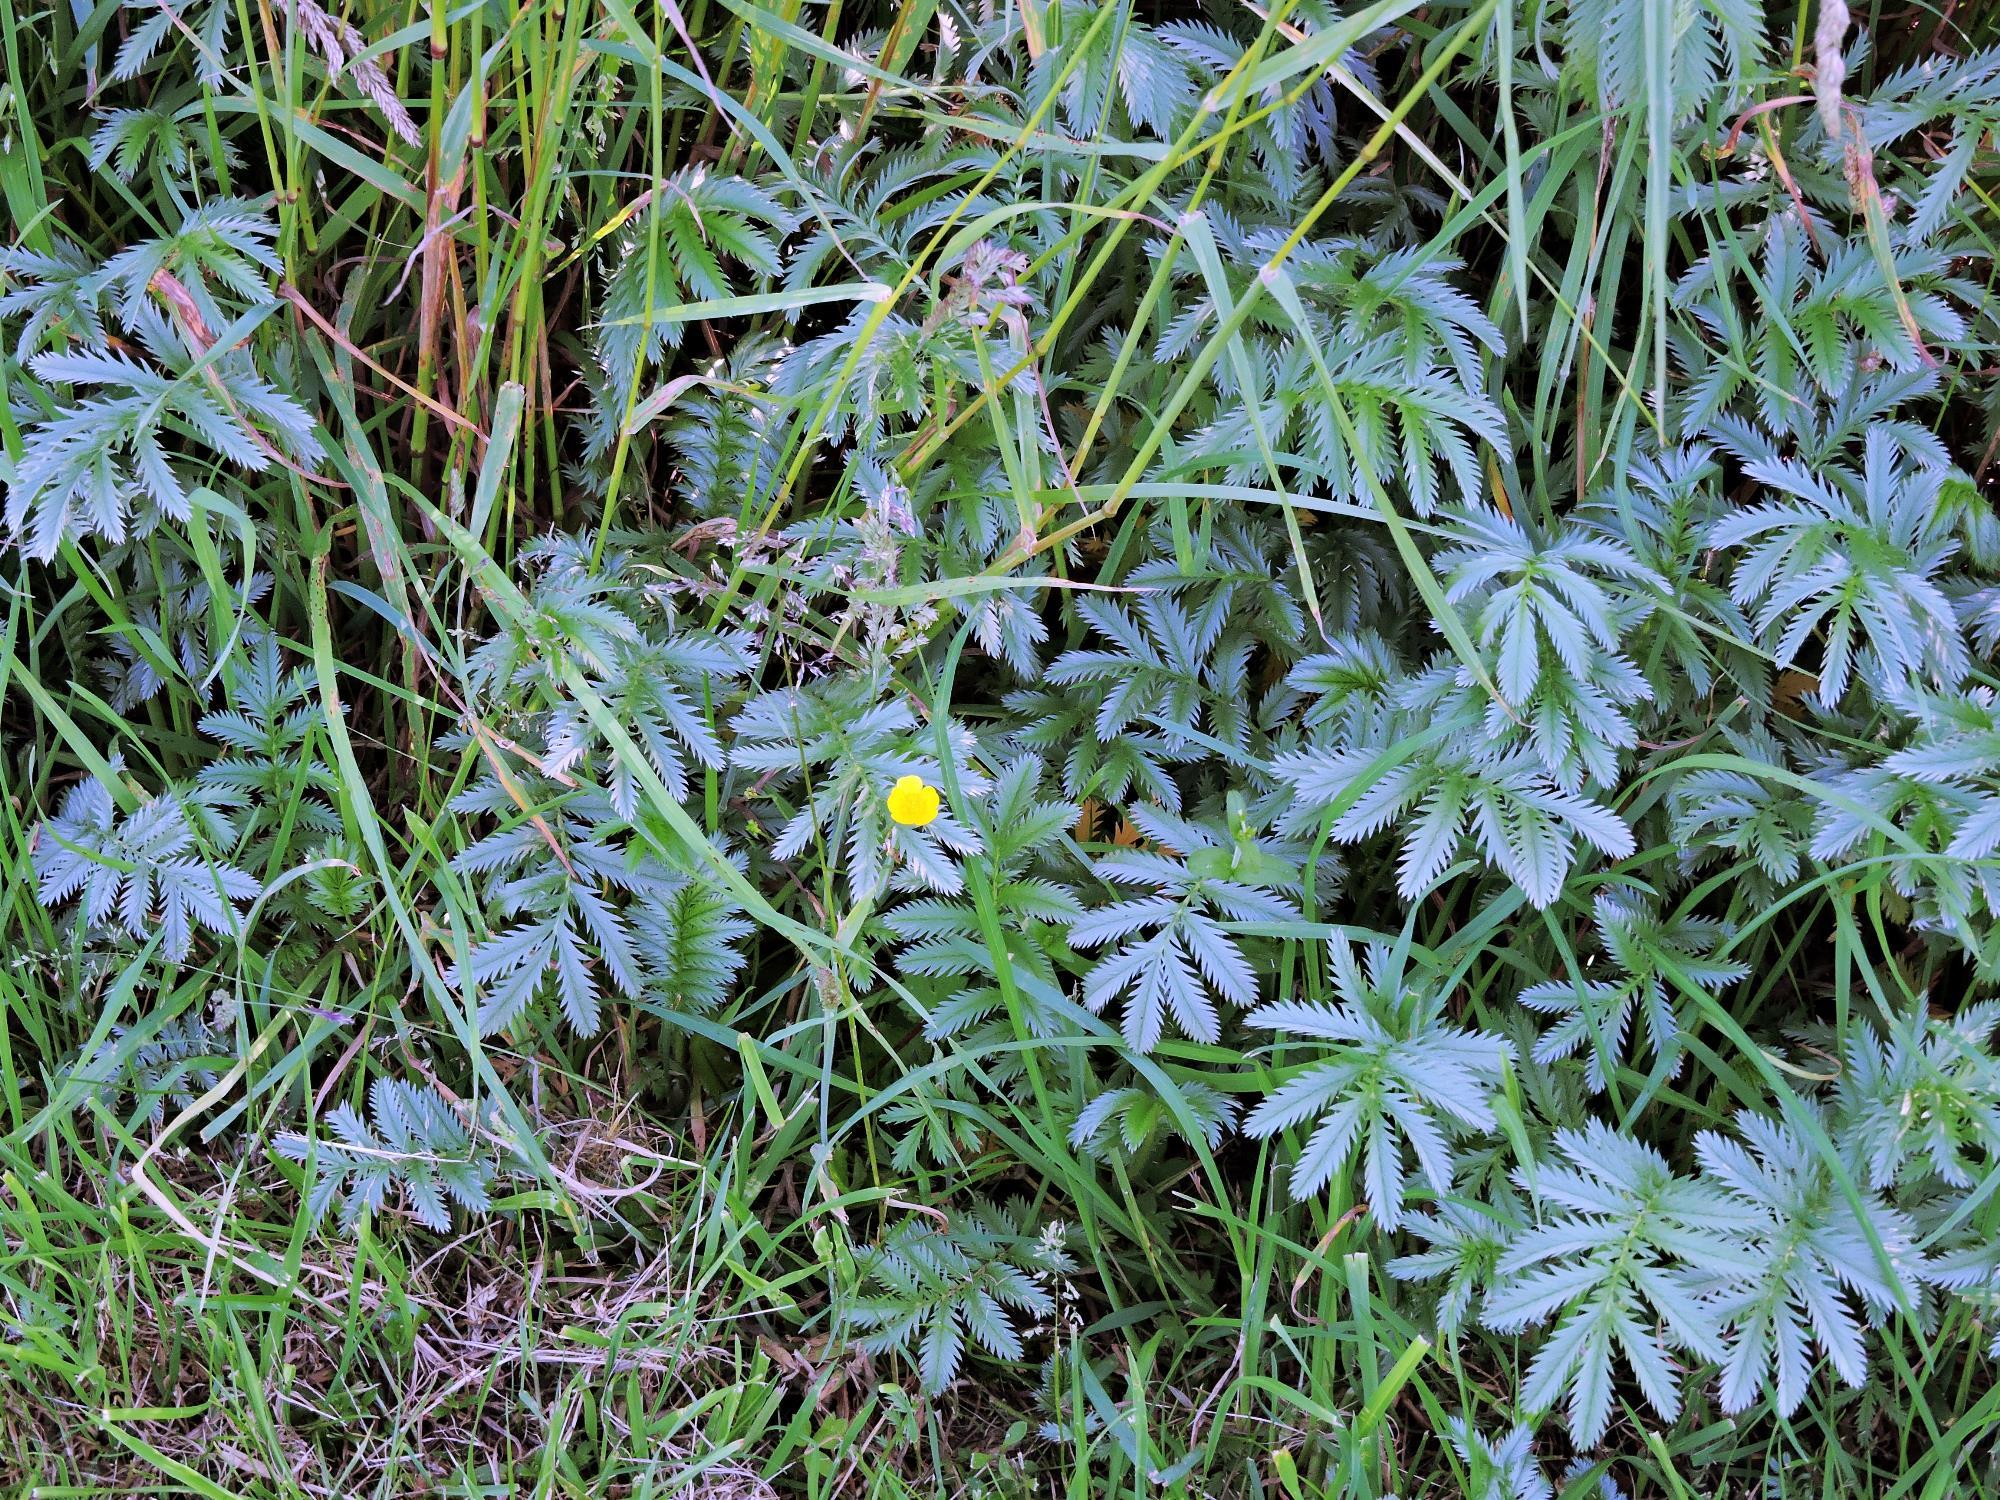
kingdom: Plantae
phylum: Tracheophyta
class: Magnoliopsida
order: Rosales
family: Rosaceae
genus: Argentina
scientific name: Argentina anserina
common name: Common silverweed
